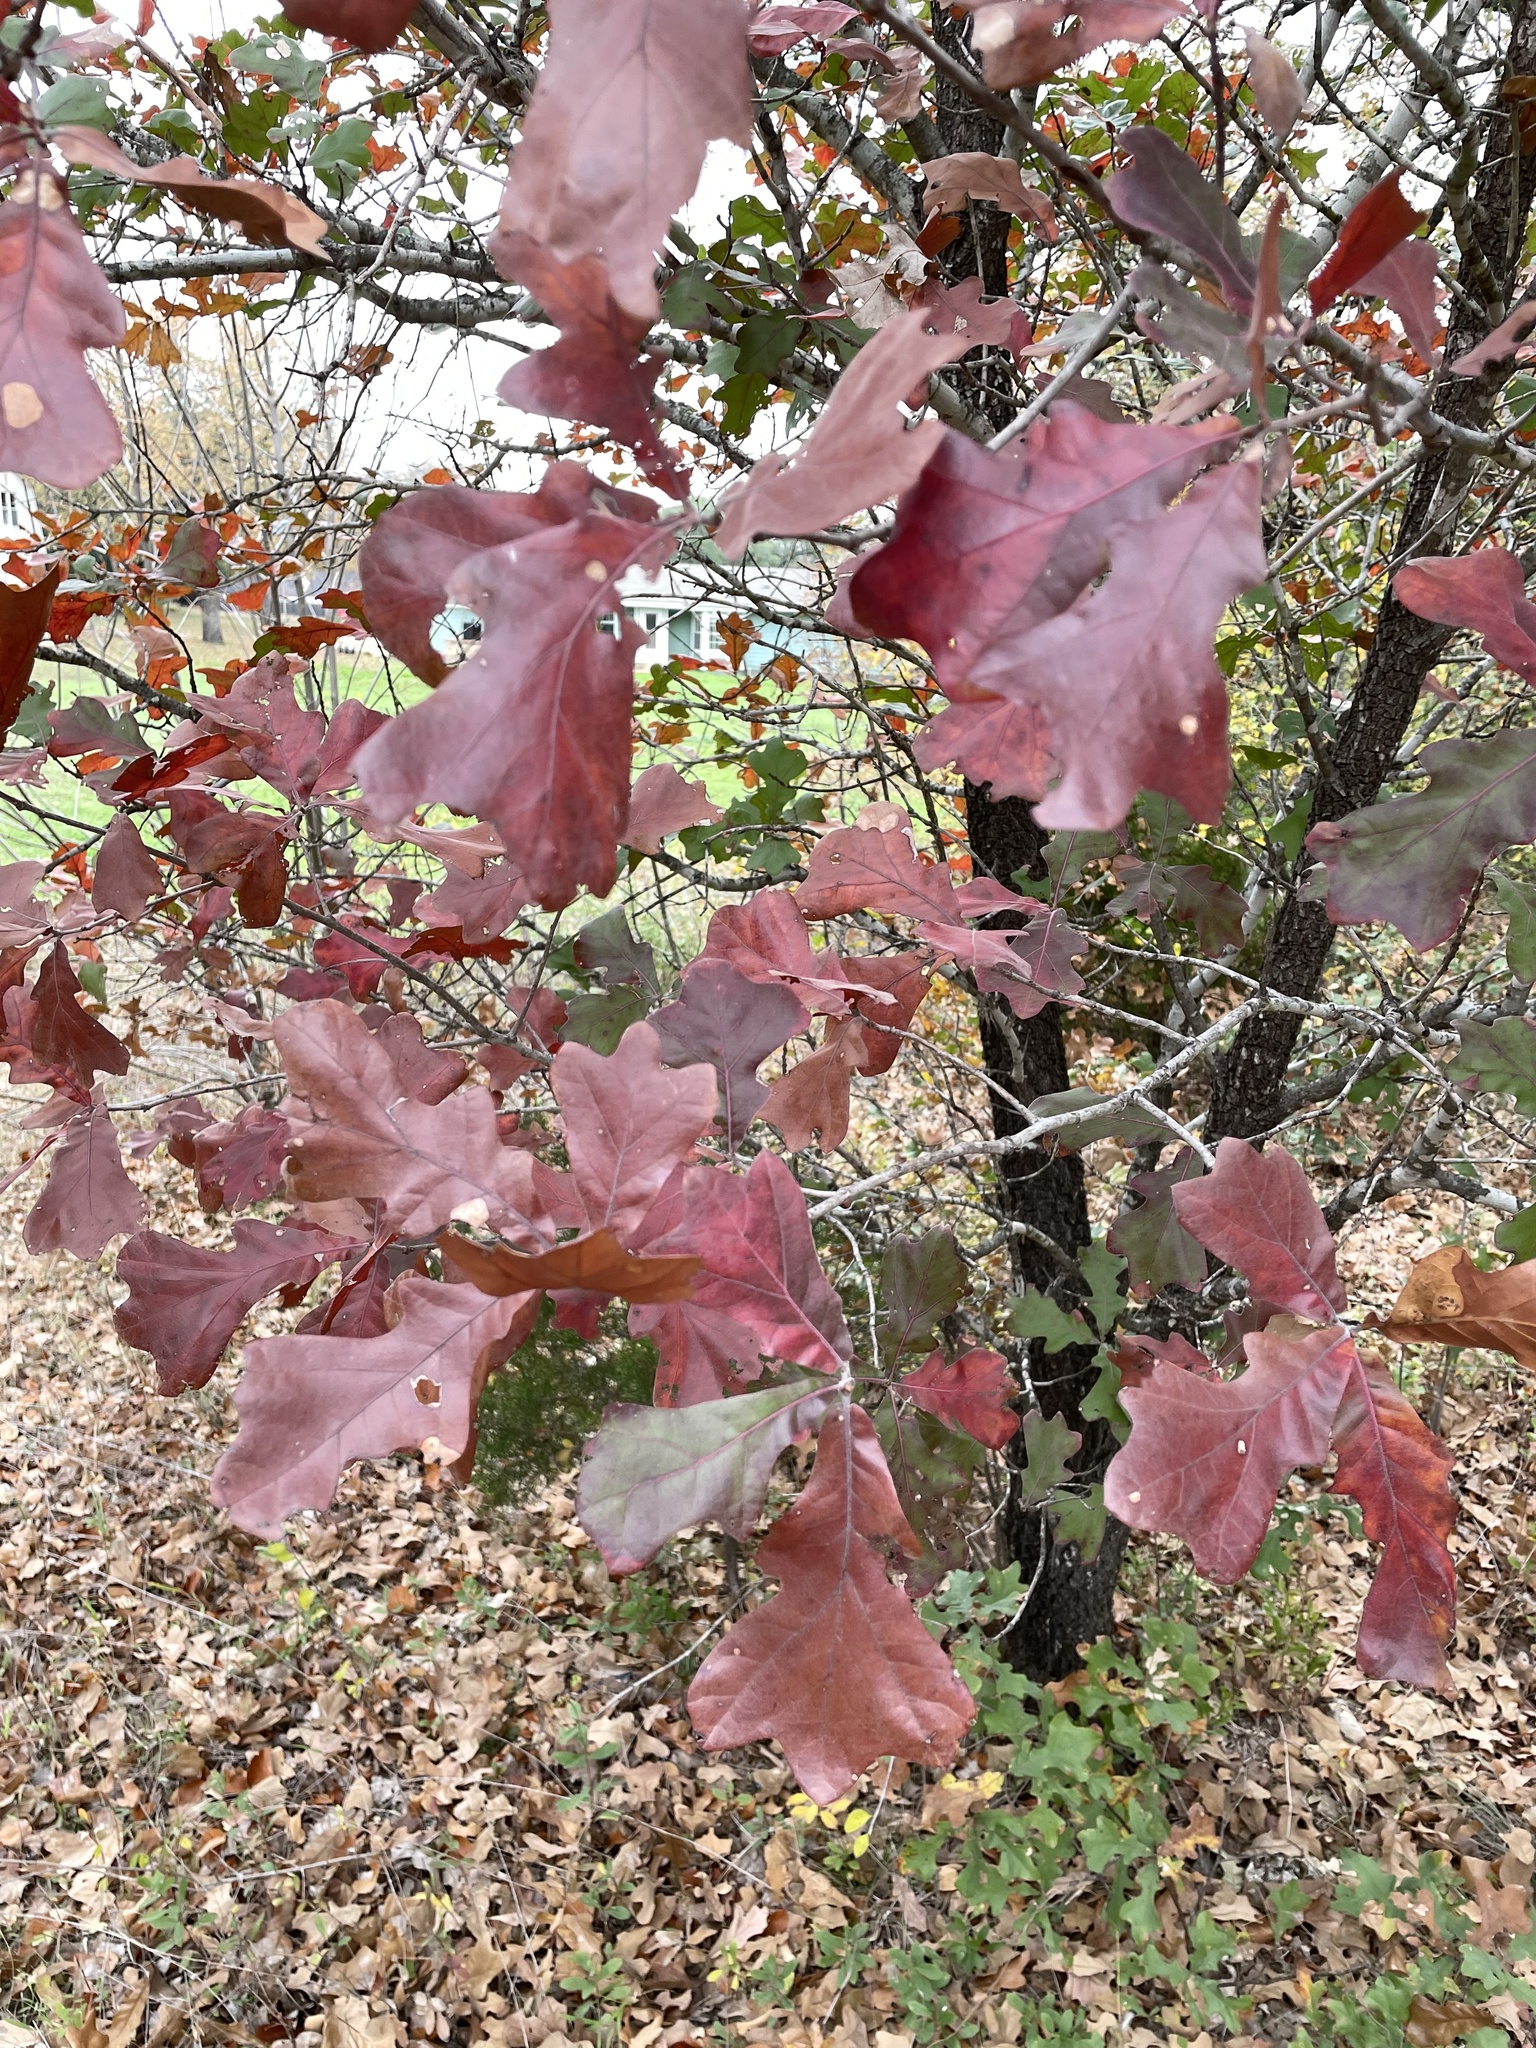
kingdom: Plantae
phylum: Tracheophyta
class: Magnoliopsida
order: Fagales
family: Fagaceae
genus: Quercus
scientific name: Quercus marilandica
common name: Blackjack oak
